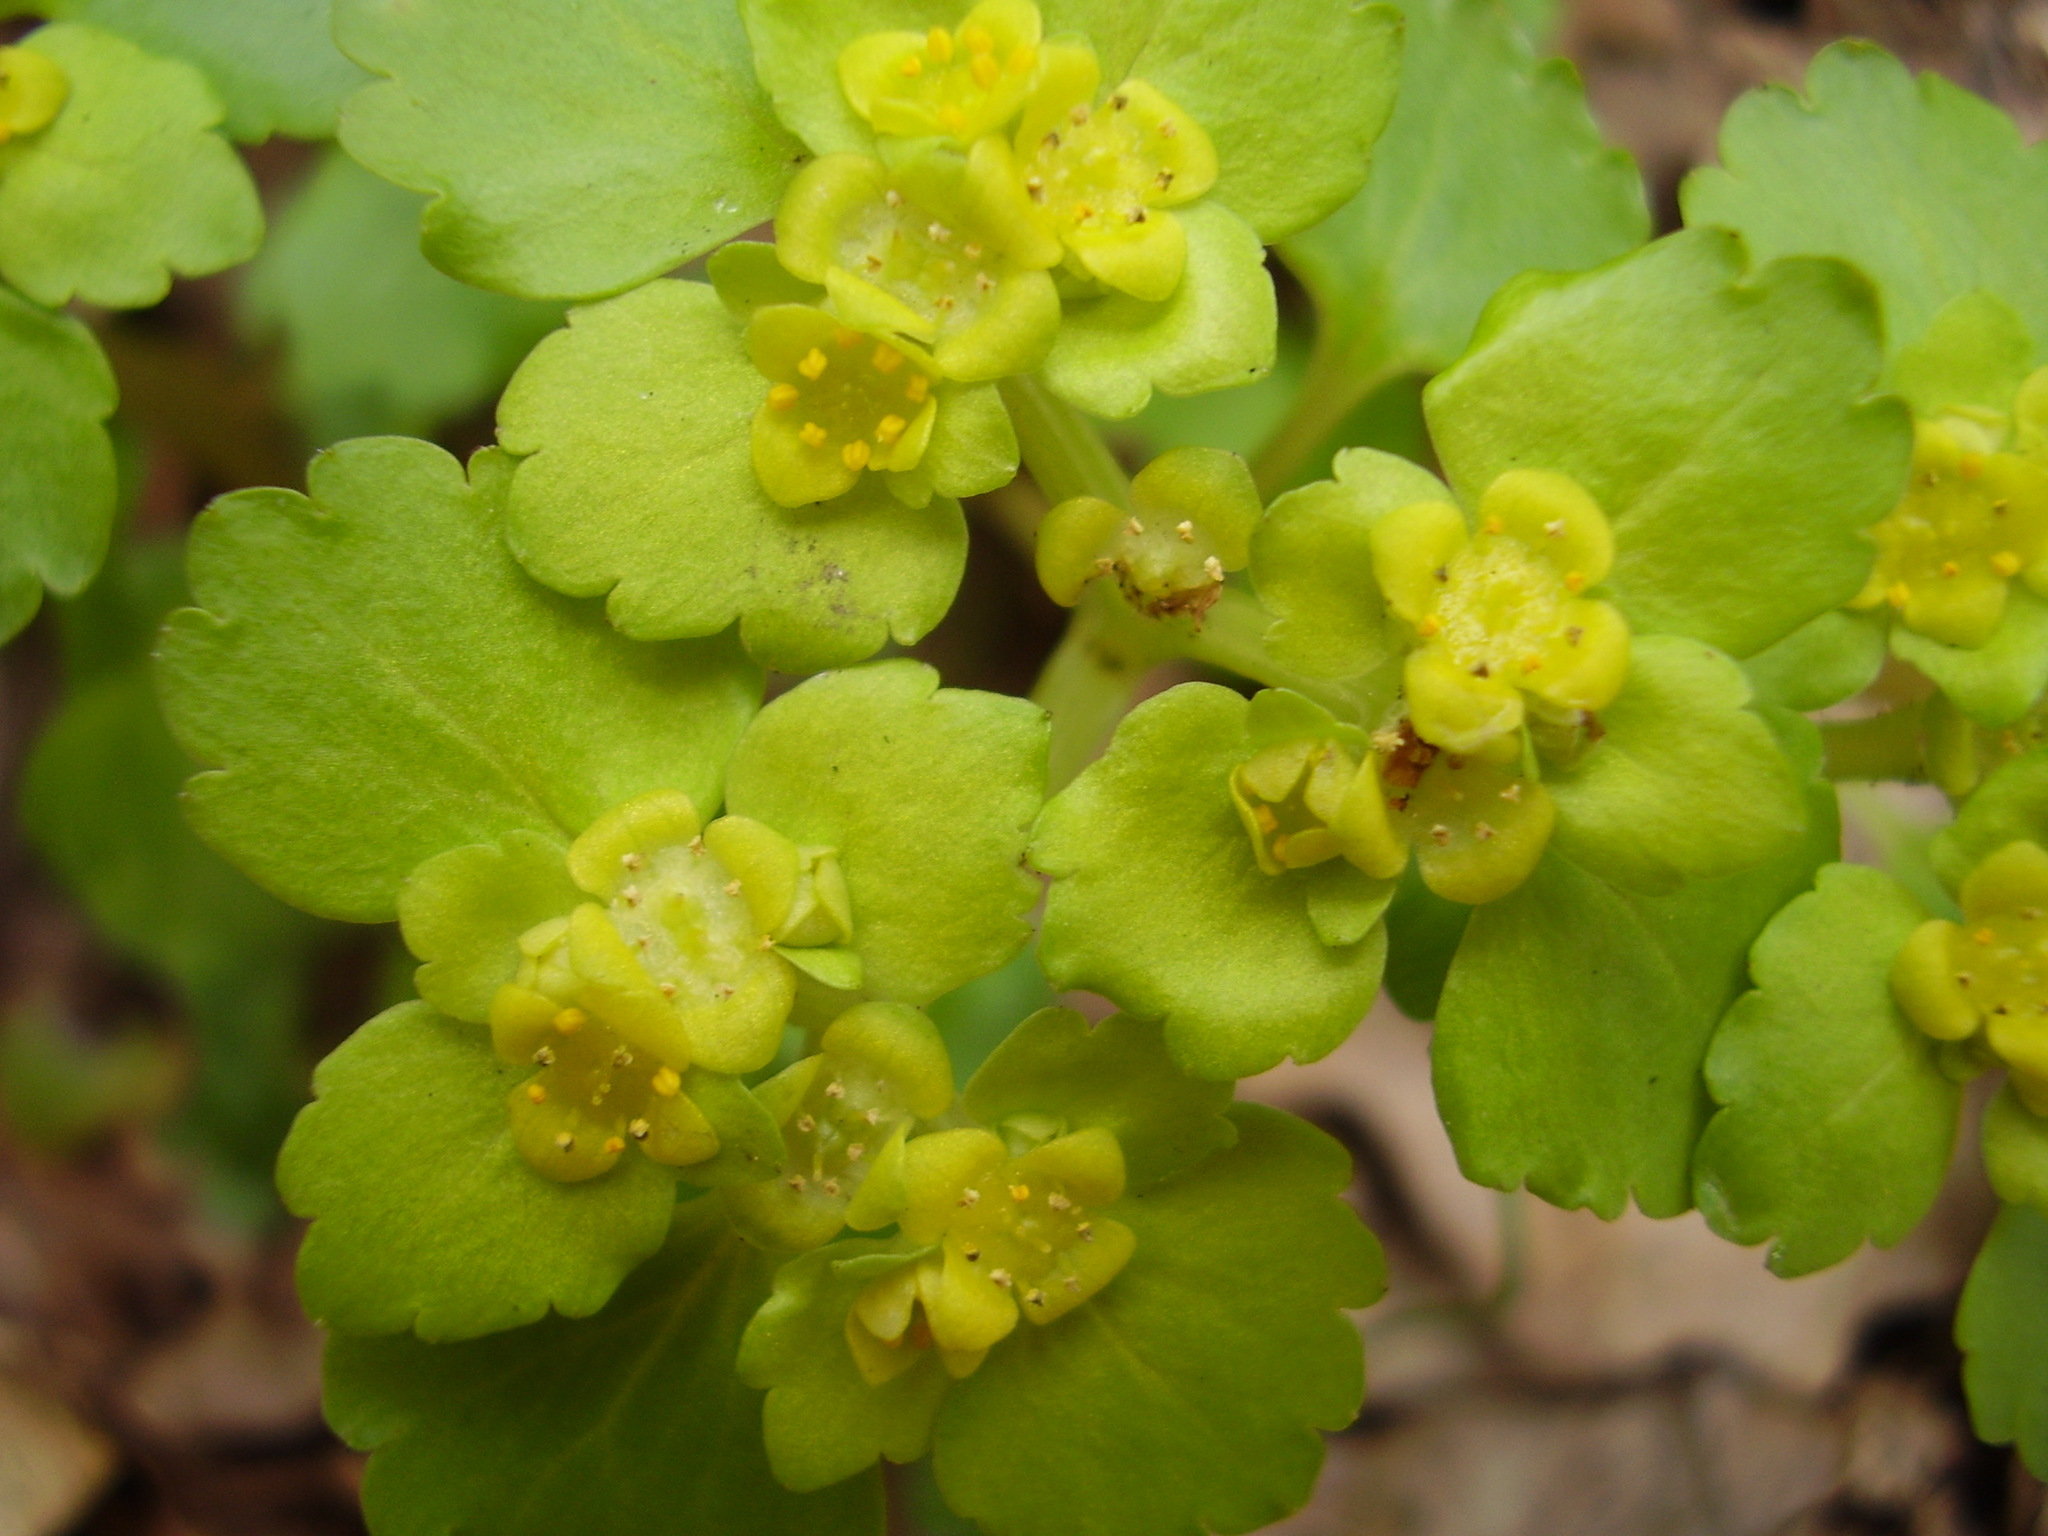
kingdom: Plantae
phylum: Tracheophyta
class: Magnoliopsida
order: Saxifragales
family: Saxifragaceae
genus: Chrysosplenium
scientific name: Chrysosplenium alternifolium
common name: Alternate-leaved golden-saxifrage
